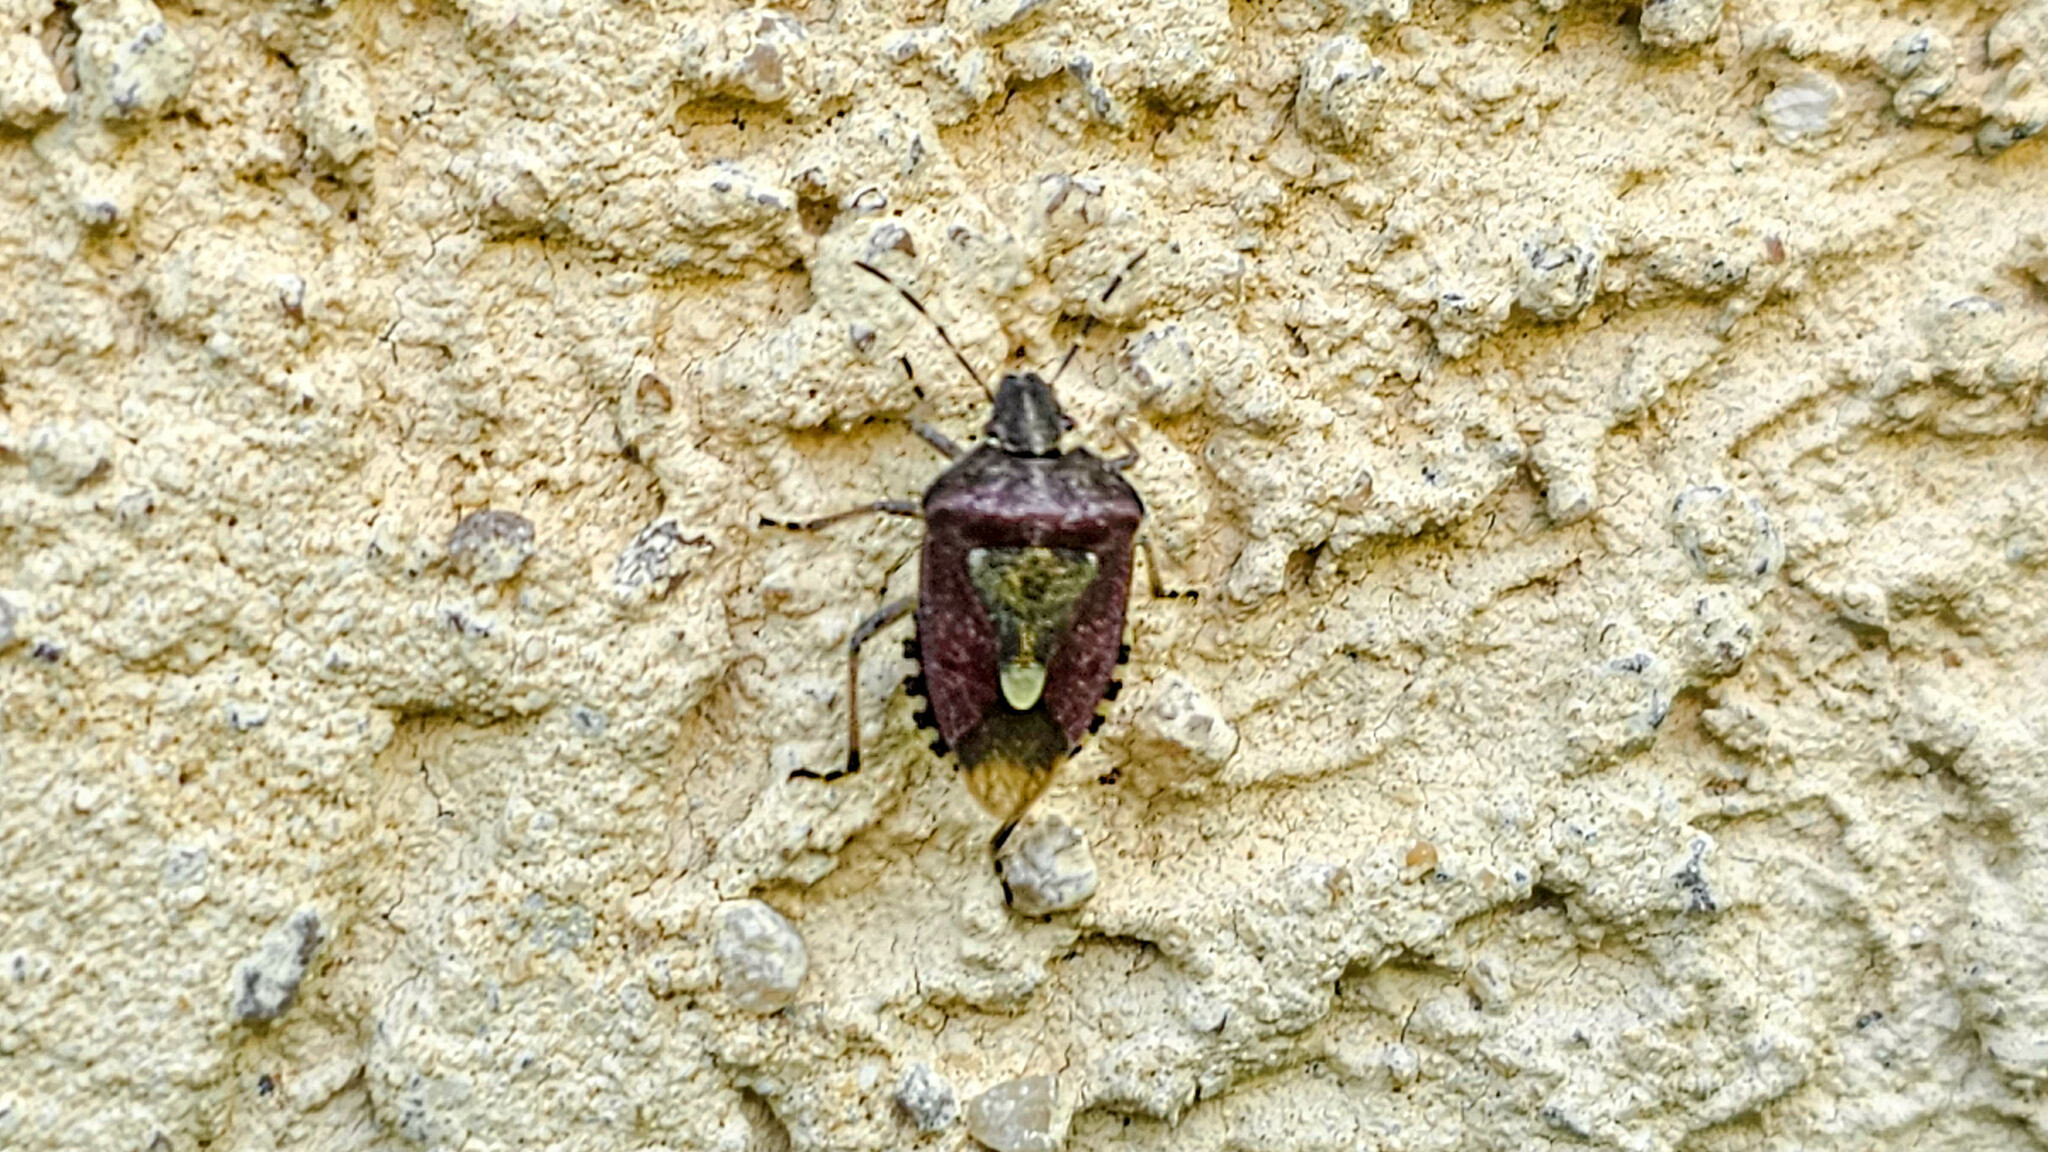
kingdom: Animalia
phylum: Arthropoda
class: Insecta
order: Hemiptera
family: Pentatomidae
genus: Dolycoris
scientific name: Dolycoris baccarum
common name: Sloe bug
